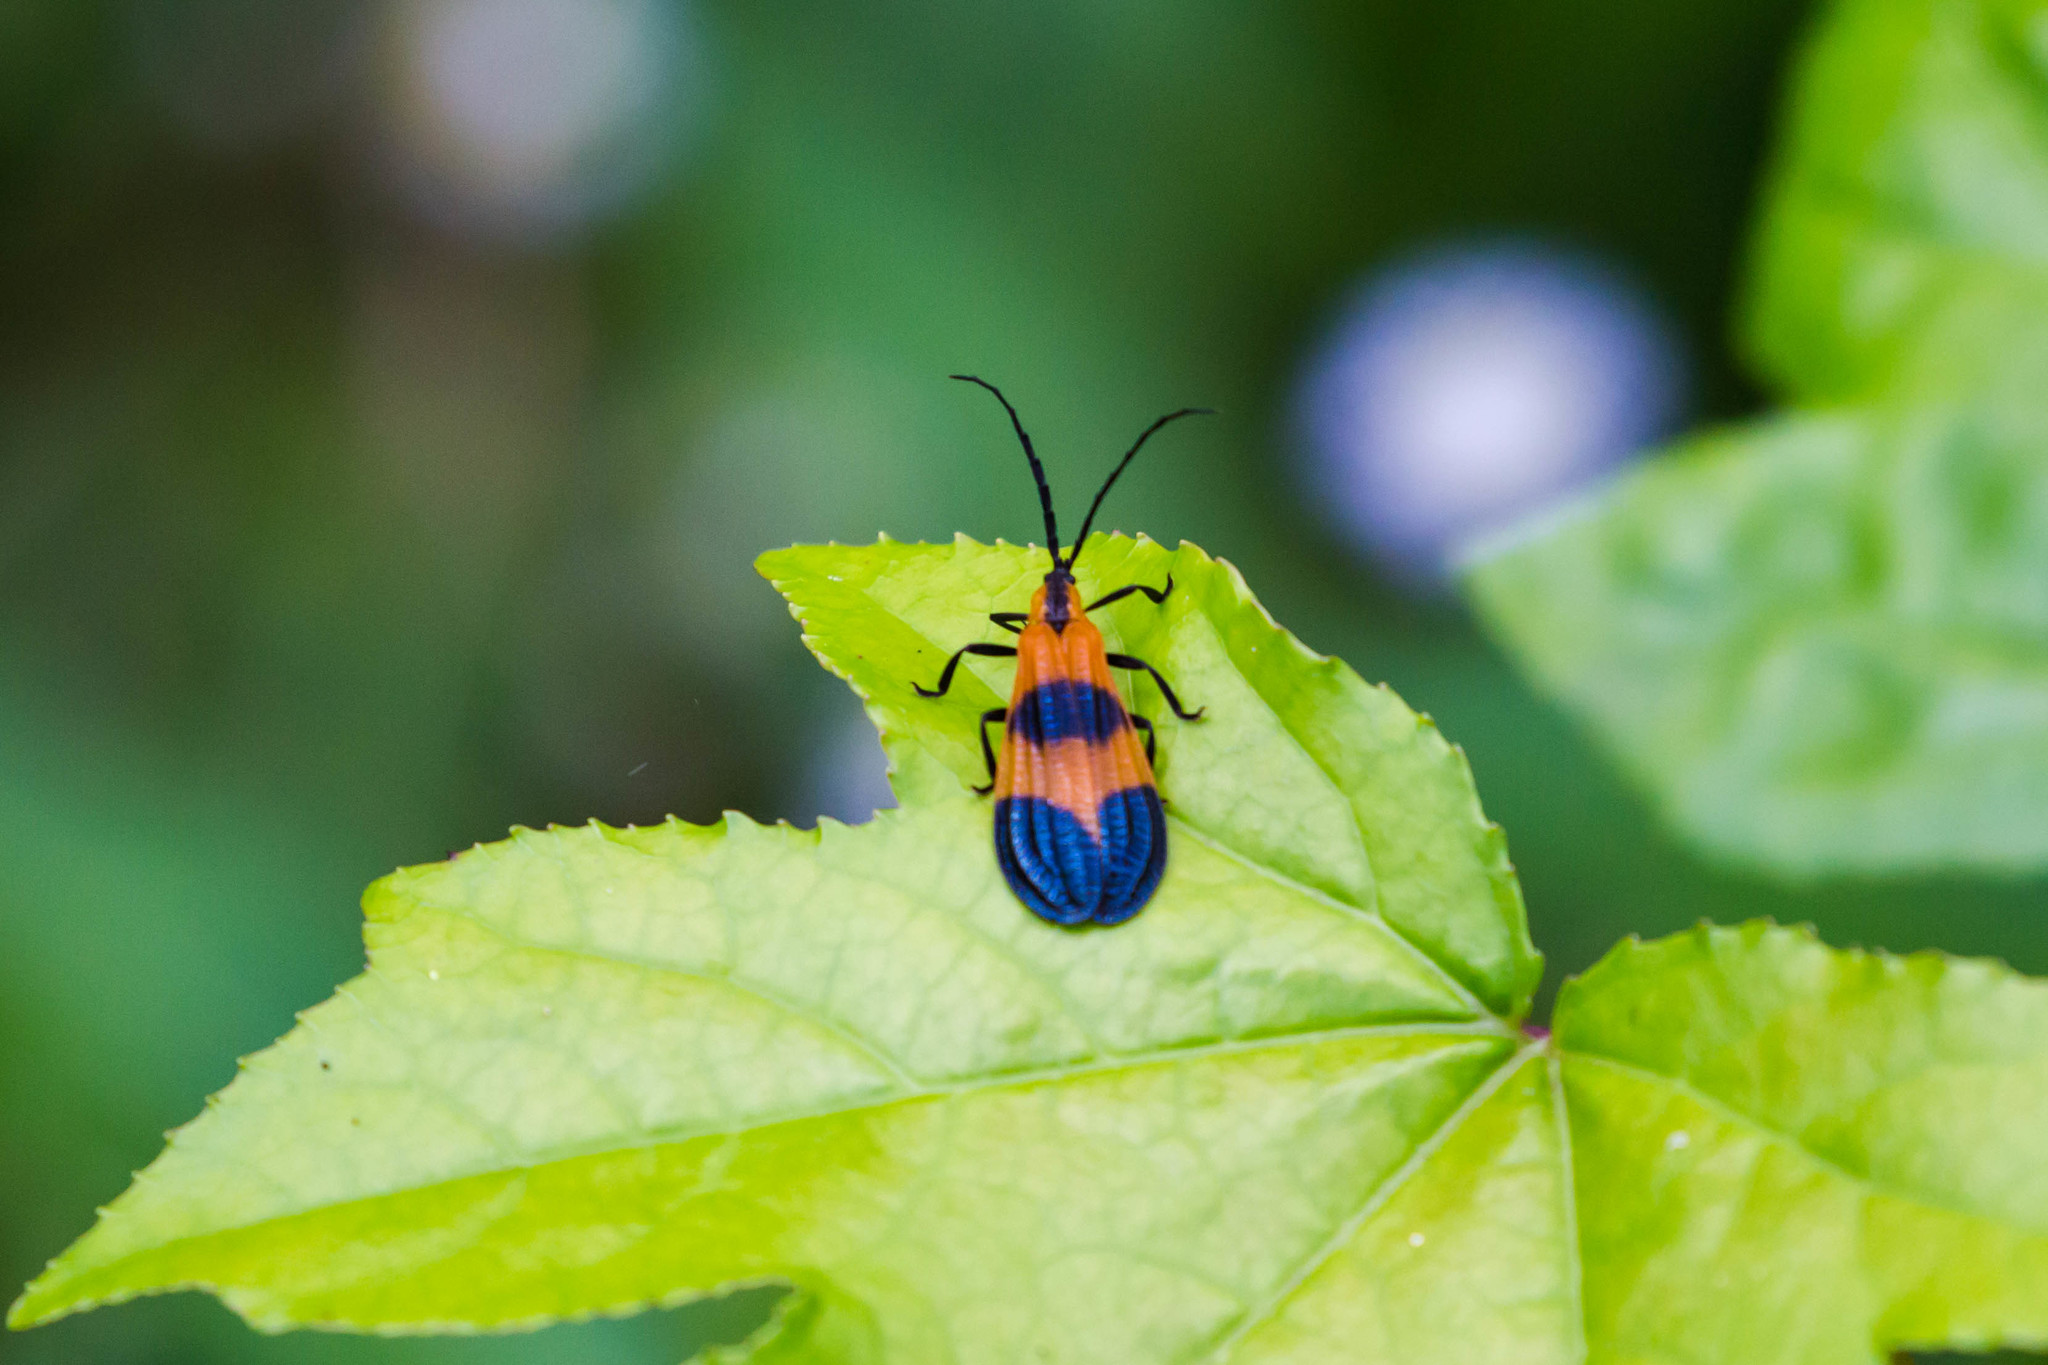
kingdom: Animalia
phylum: Arthropoda
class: Insecta
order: Coleoptera
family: Lycidae
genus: Calopteron
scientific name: Calopteron terminale
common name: End band net-winged beetle
